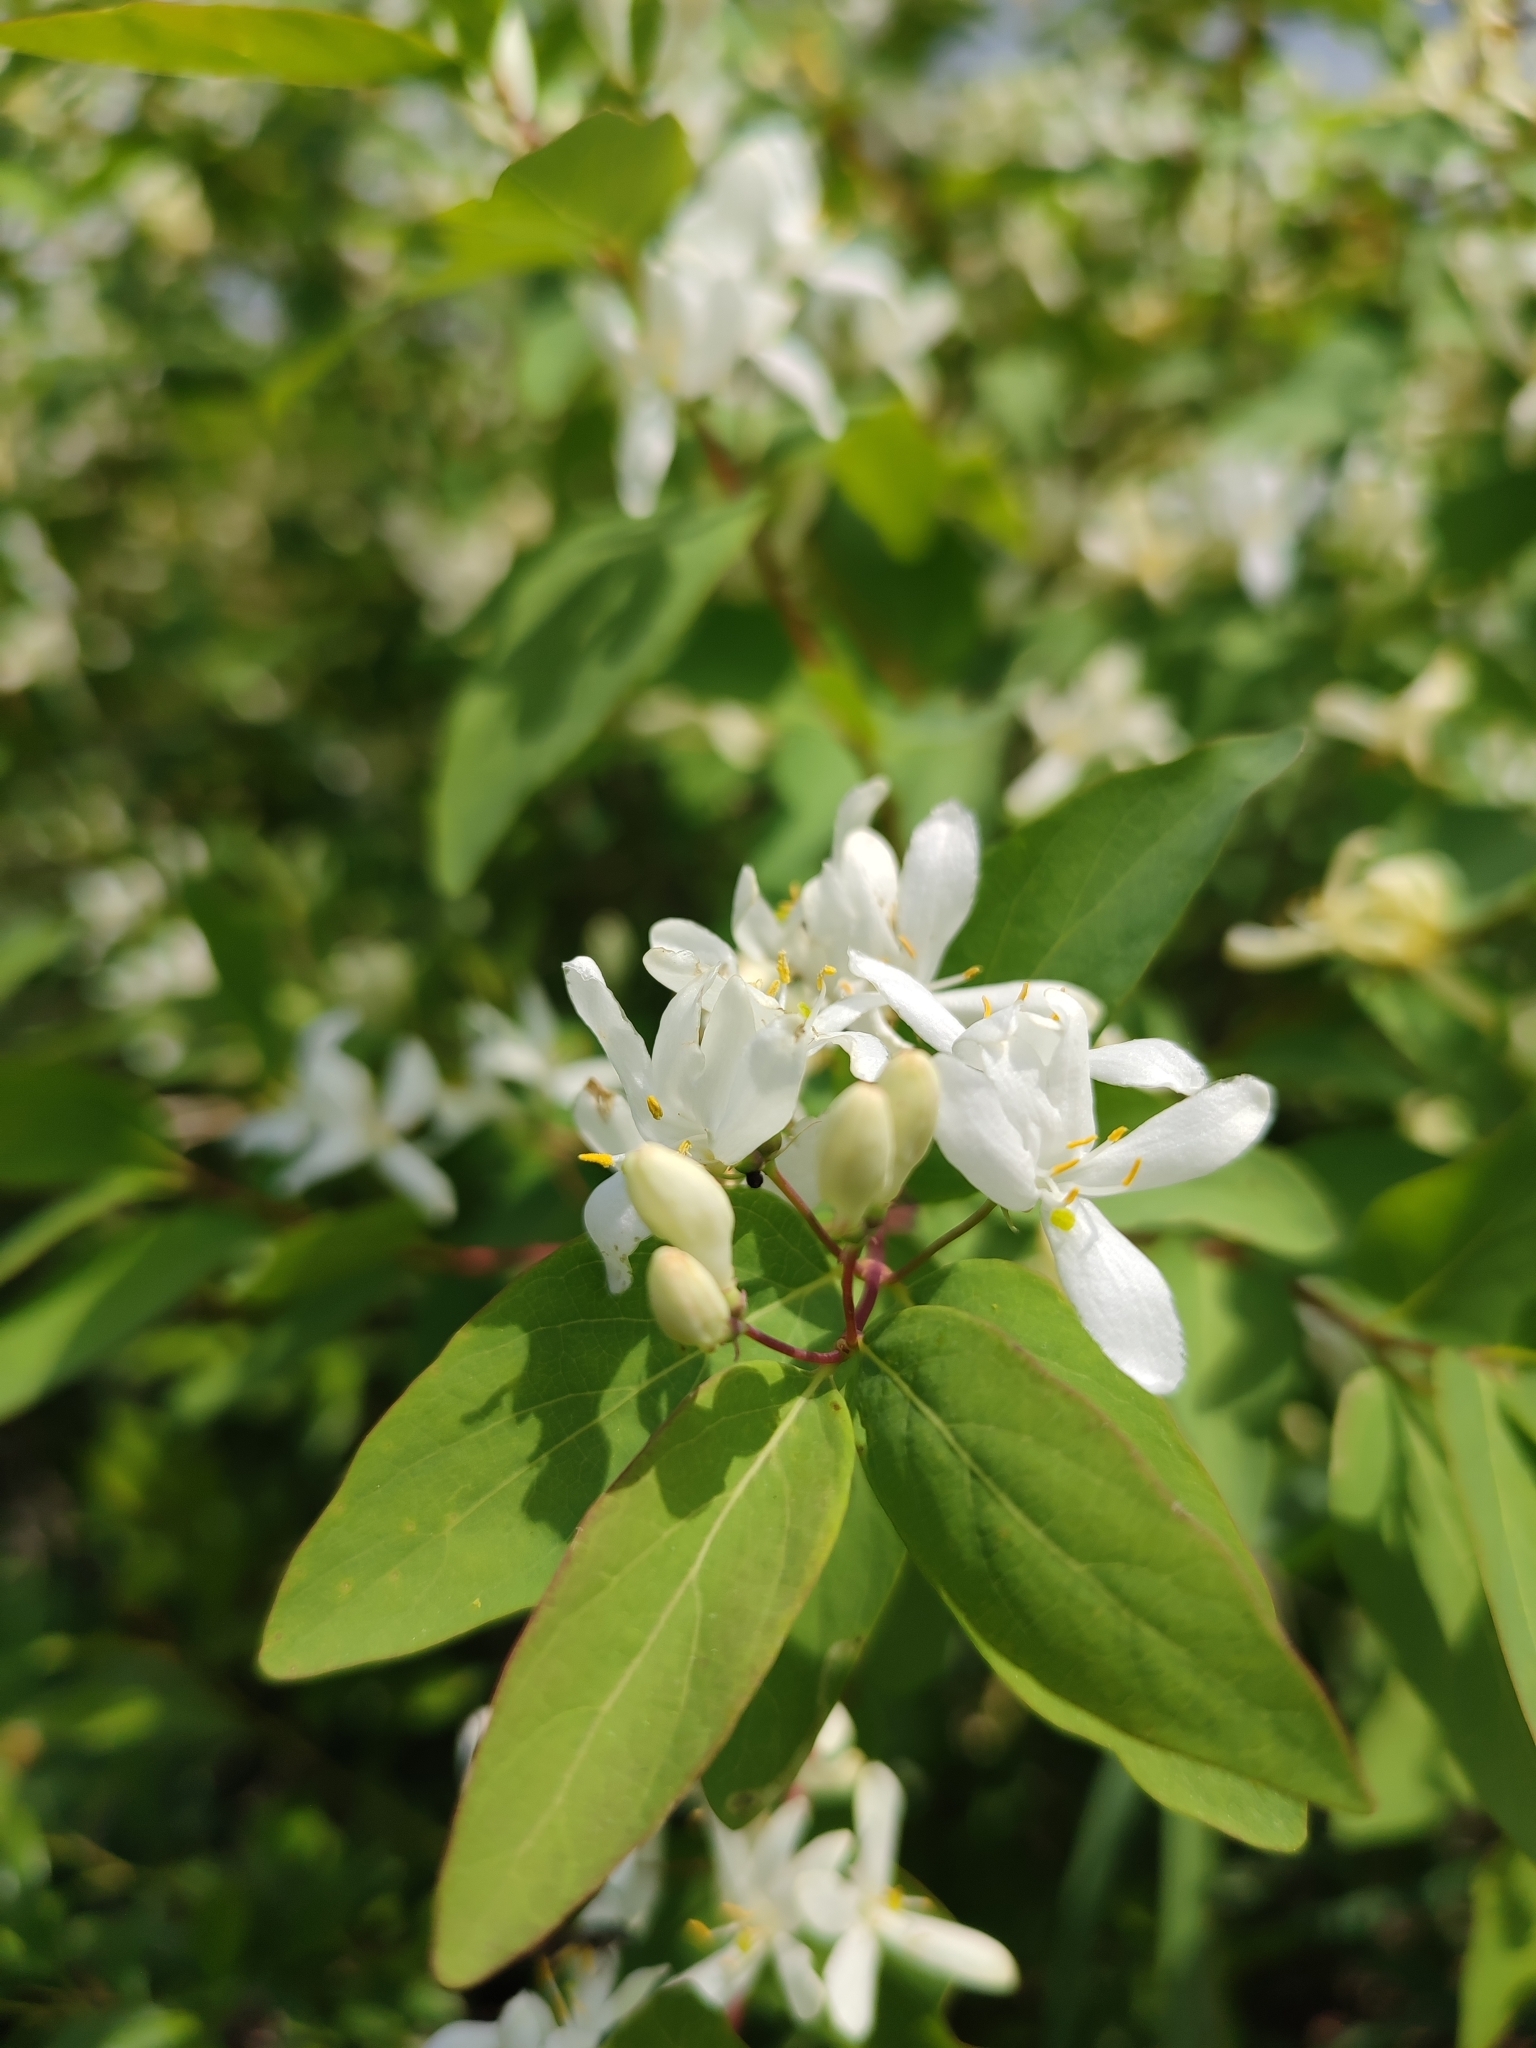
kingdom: Plantae
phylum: Tracheophyta
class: Magnoliopsida
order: Dipsacales
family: Caprifoliaceae
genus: Lonicera
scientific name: Lonicera tatarica
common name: Tatarian honeysuckle
